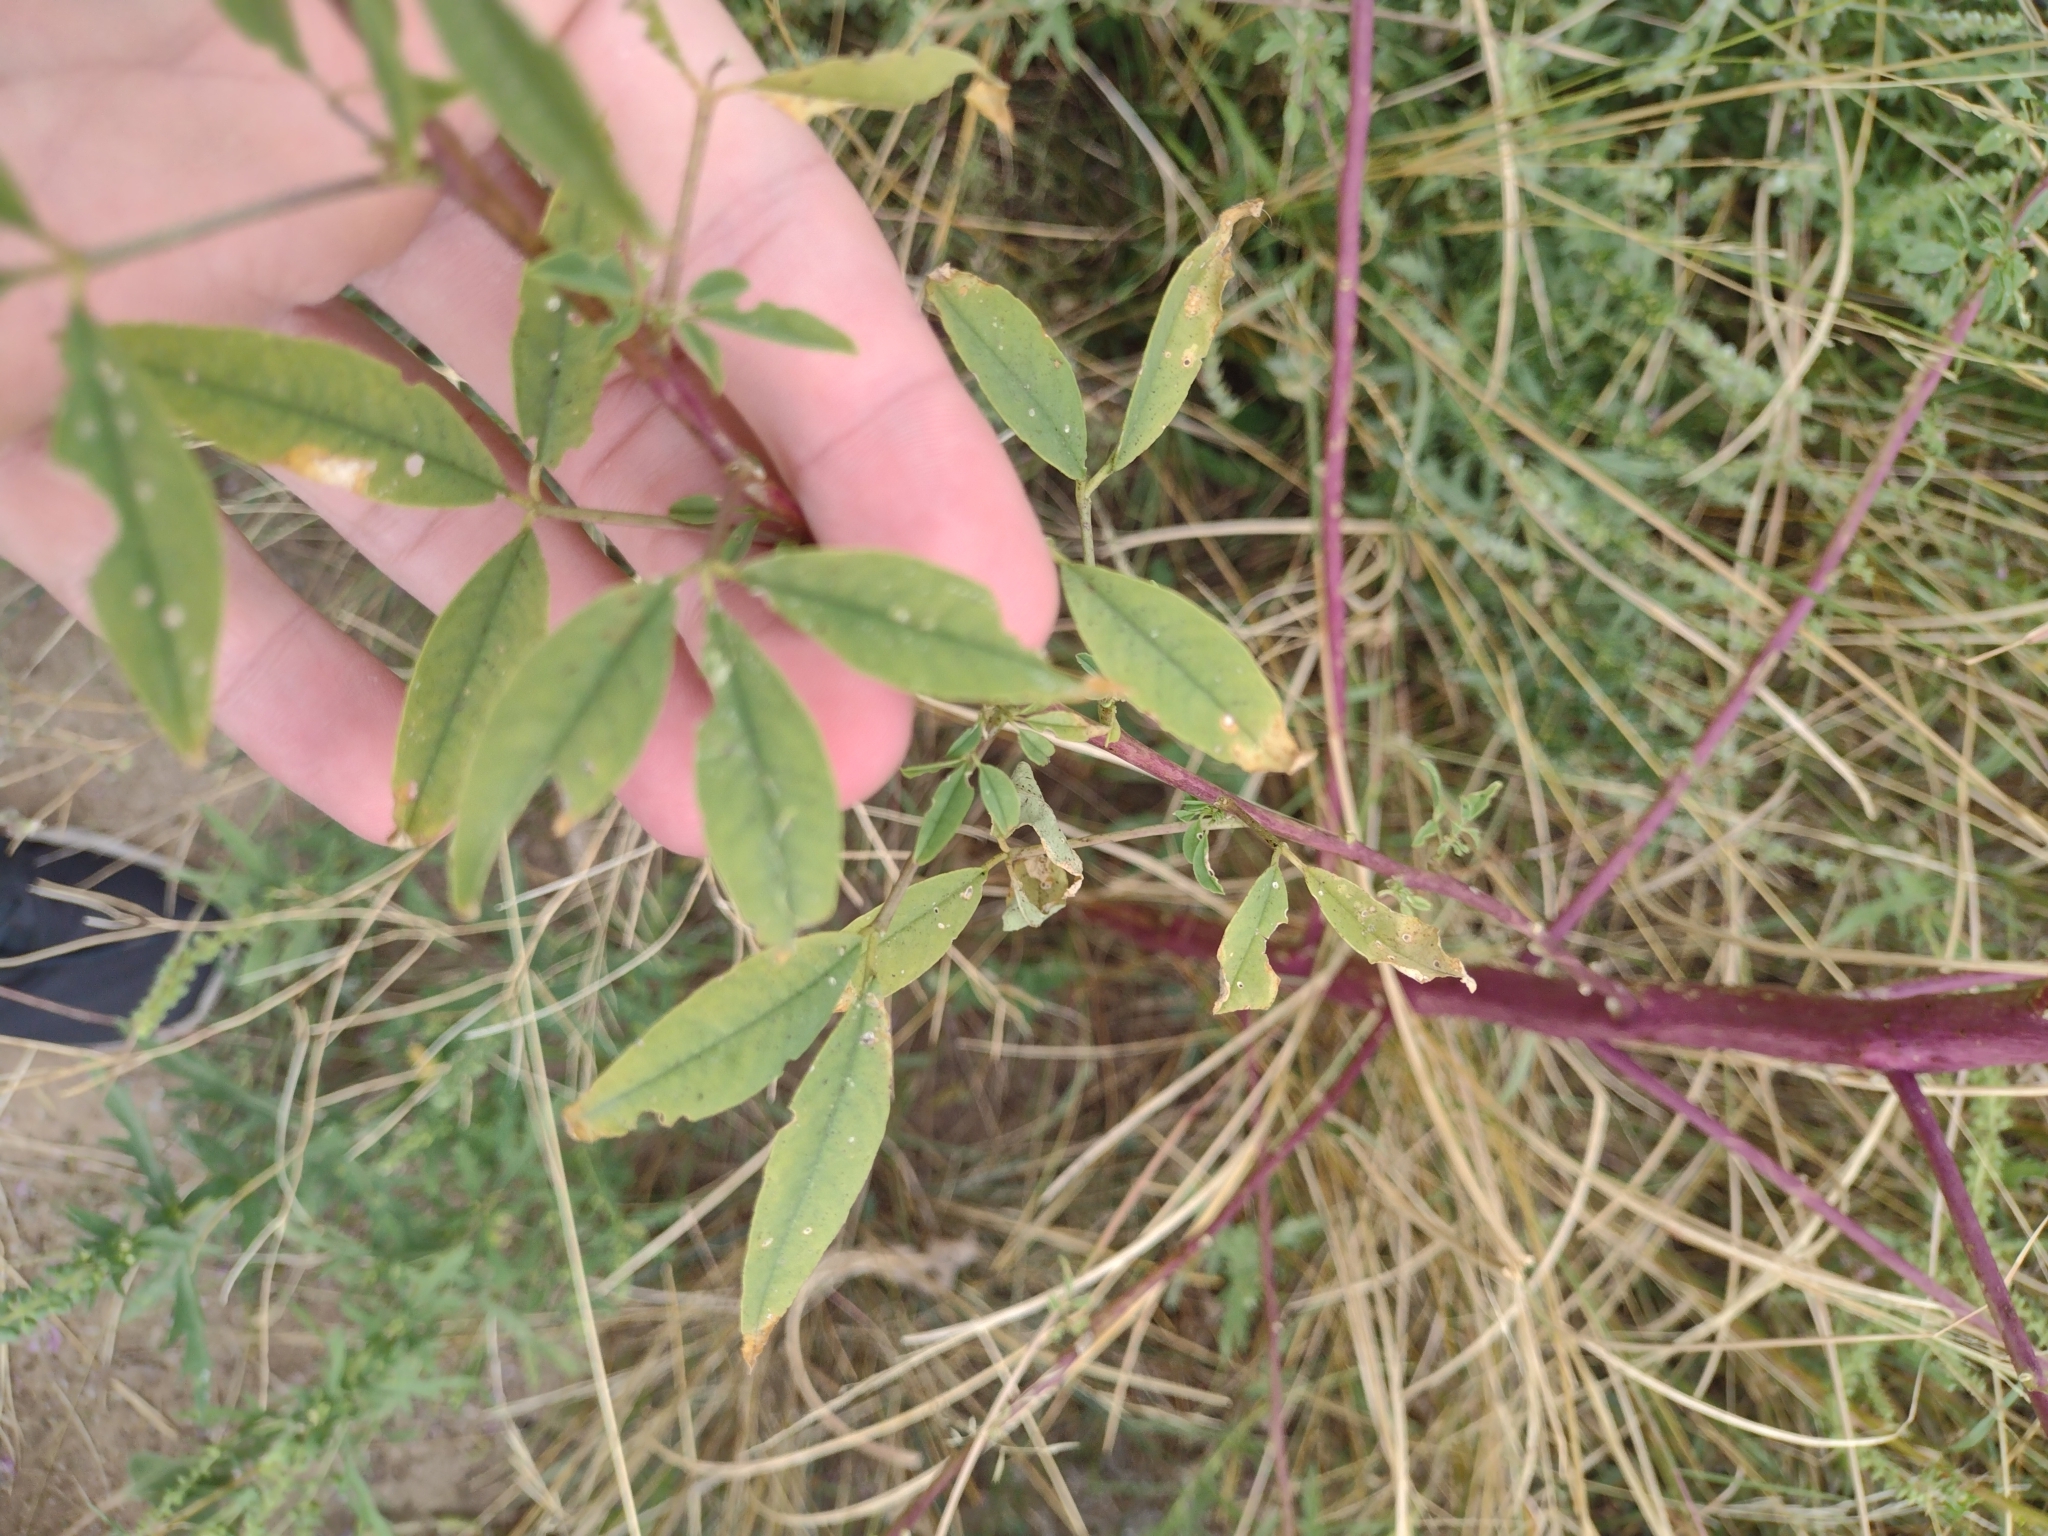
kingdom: Plantae
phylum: Tracheophyta
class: Magnoliopsida
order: Brassicales
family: Cleomaceae
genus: Cleomella
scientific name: Cleomella serrulata
